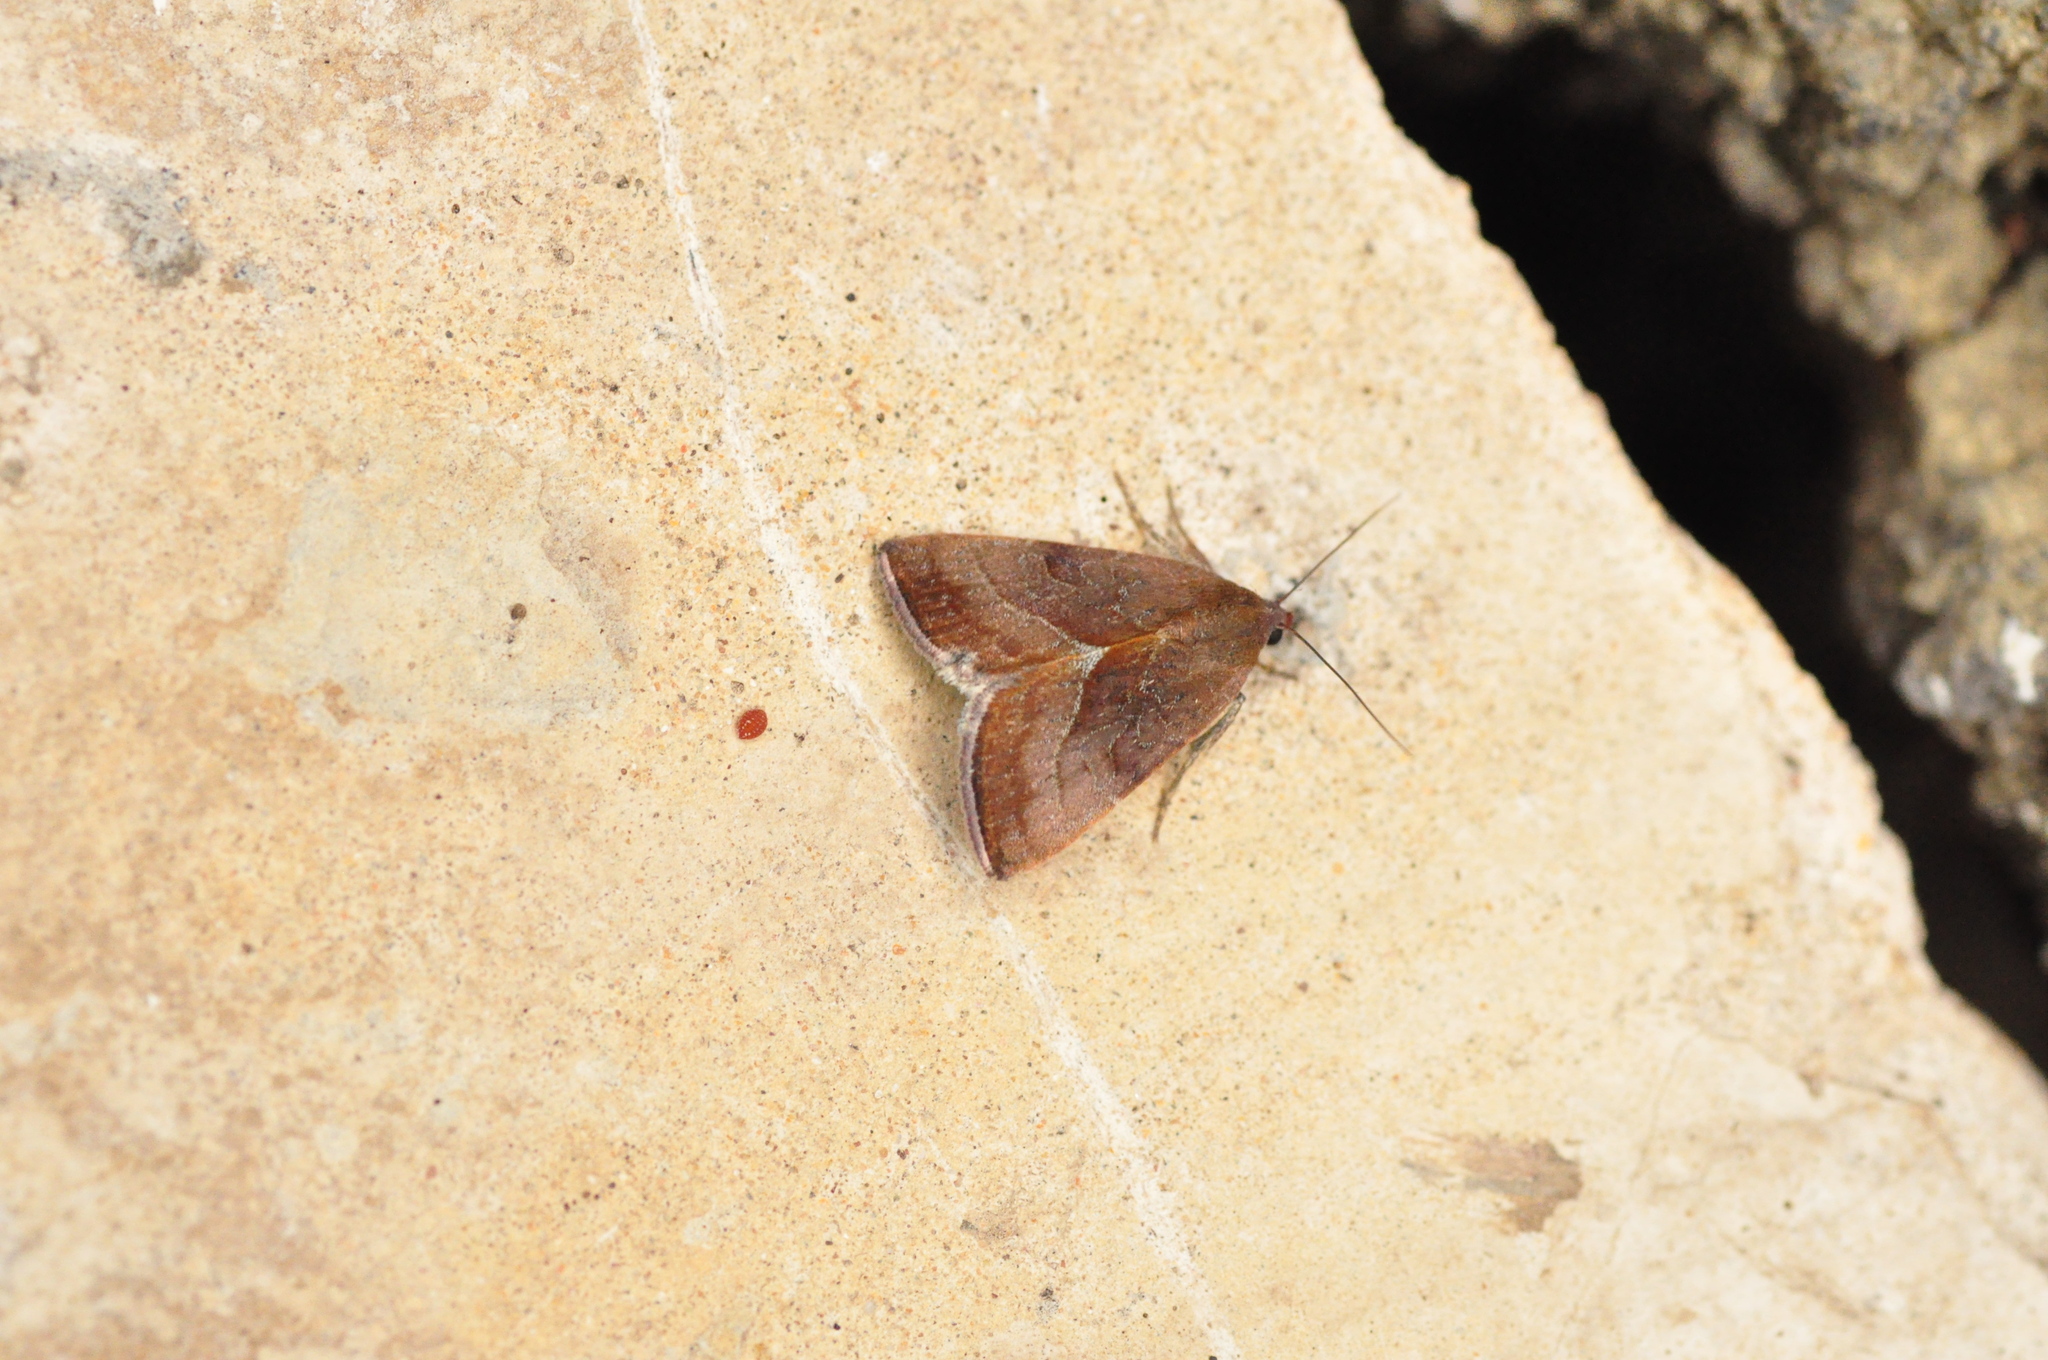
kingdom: Animalia
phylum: Arthropoda
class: Insecta
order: Lepidoptera
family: Noctuidae
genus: Galgula
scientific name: Galgula partita
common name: Wedgeling
